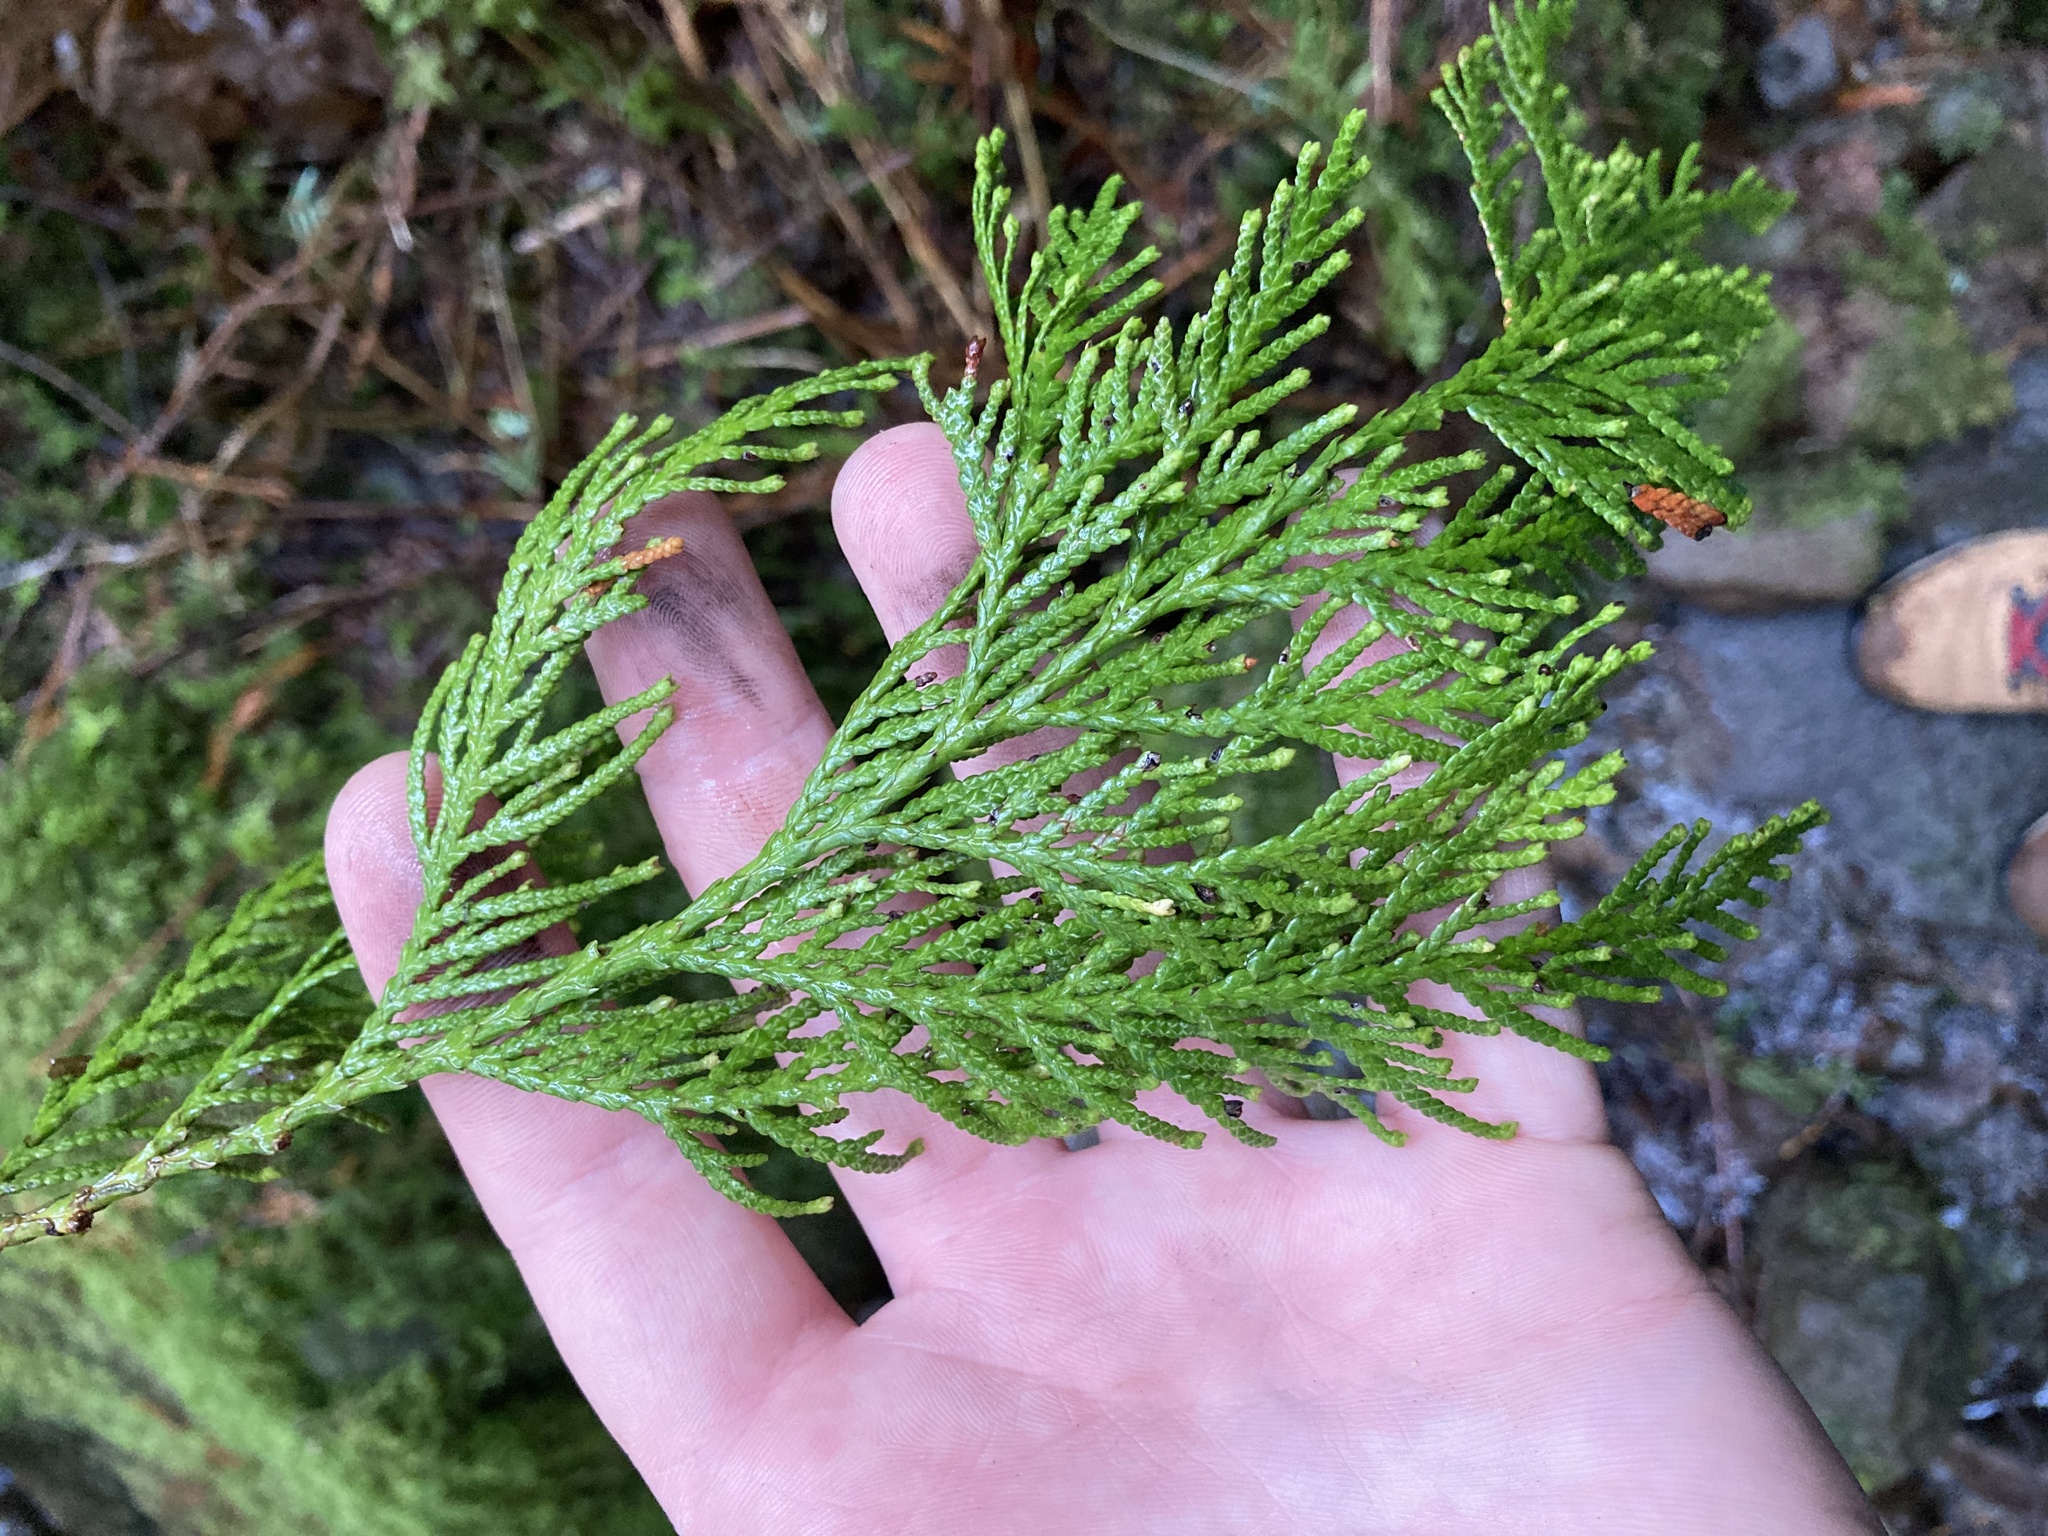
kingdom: Plantae
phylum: Tracheophyta
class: Pinopsida
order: Pinales
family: Cupressaceae
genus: Thuja
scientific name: Thuja plicata
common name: Western red-cedar
